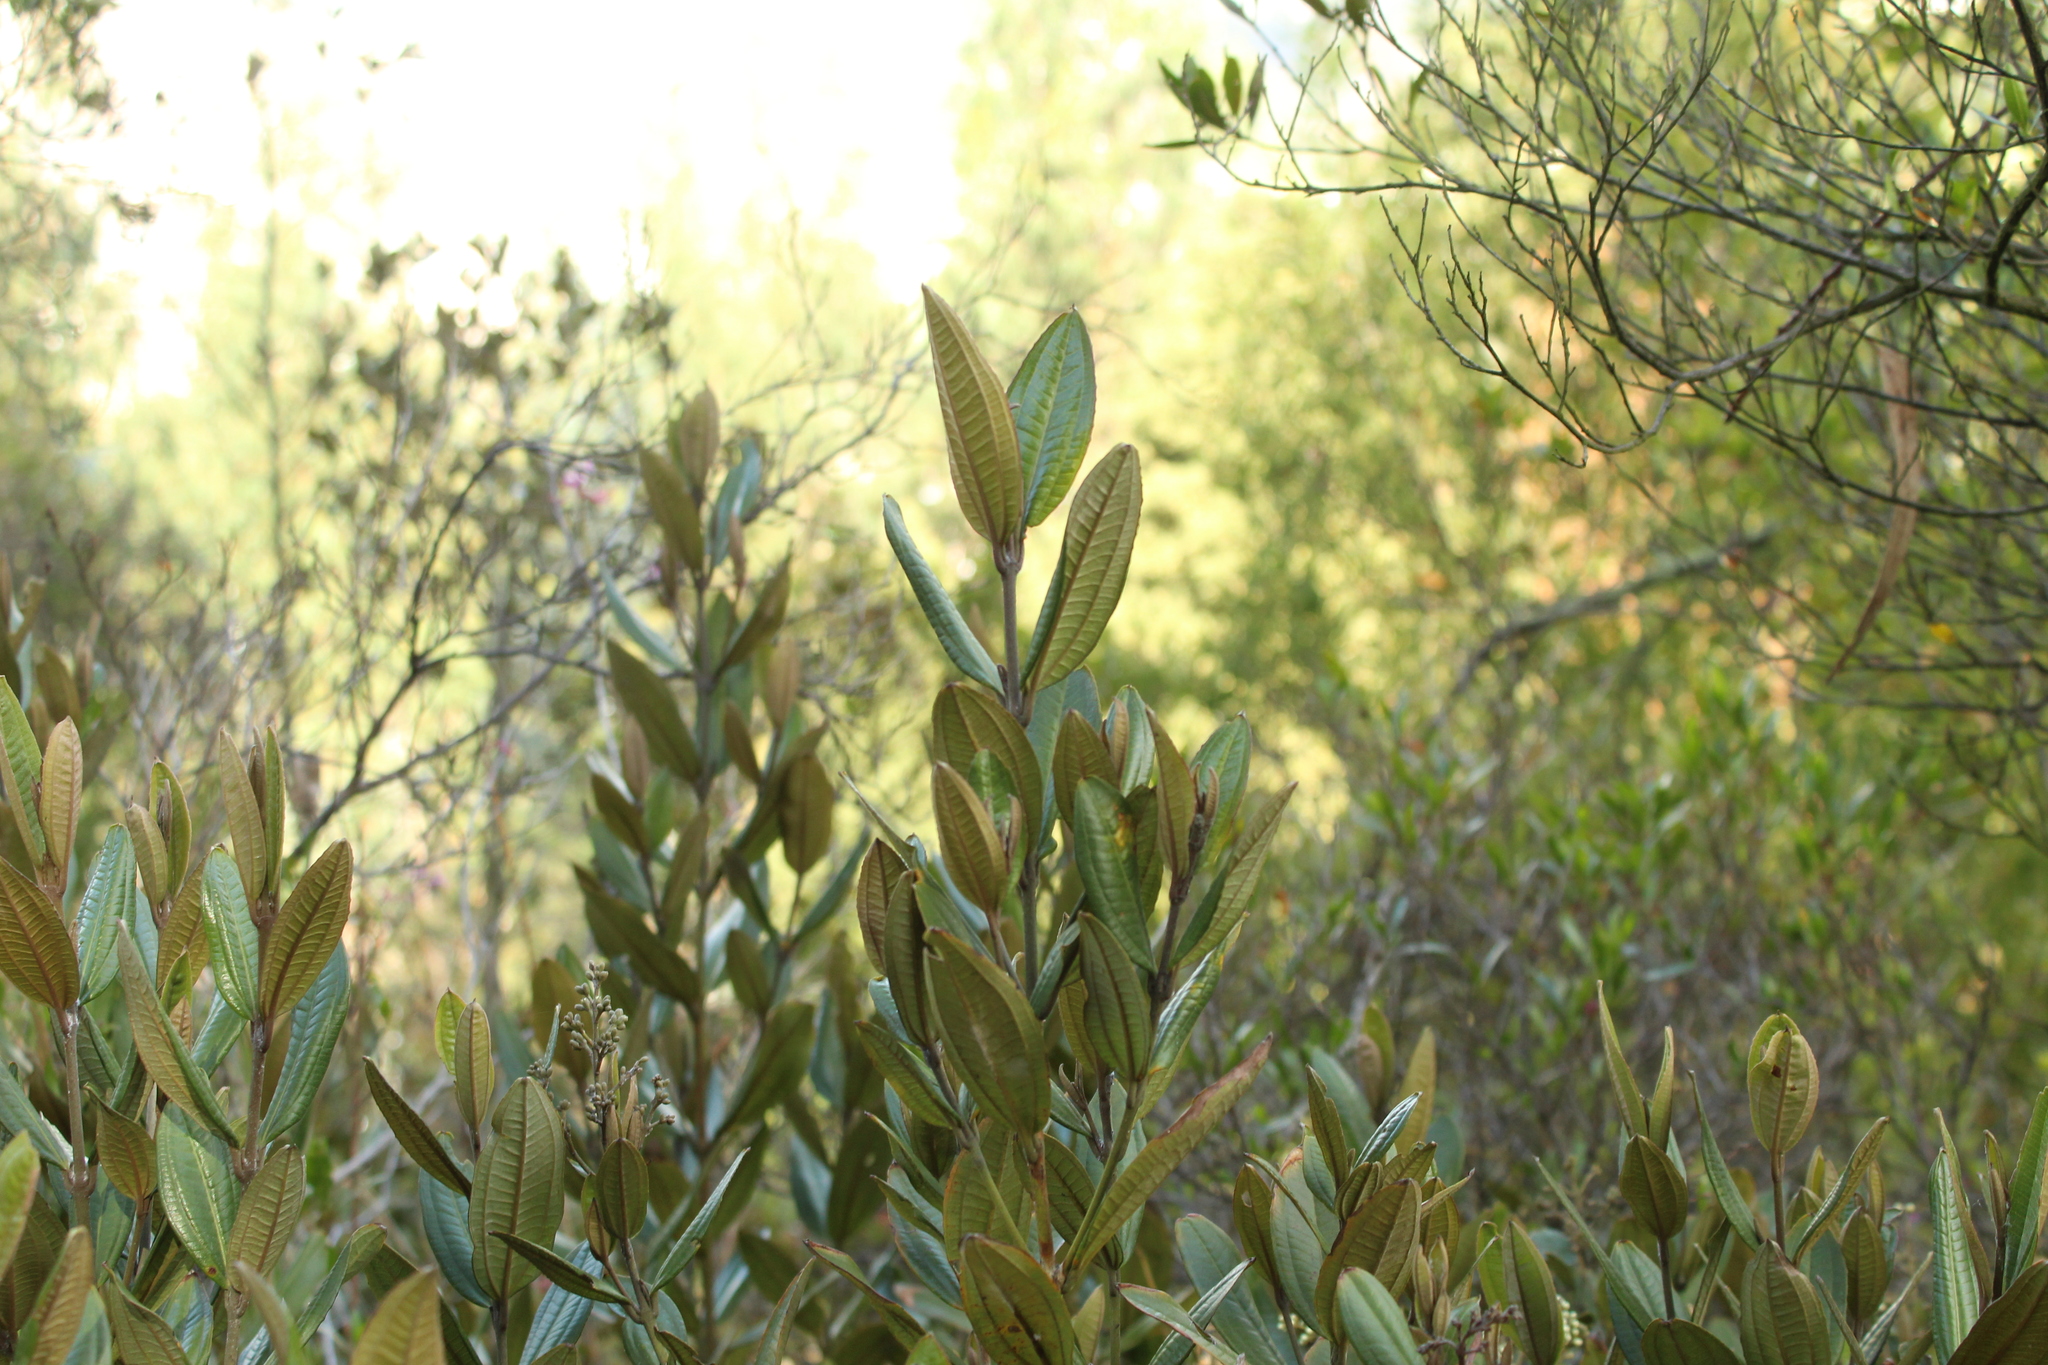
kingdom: Plantae
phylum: Tracheophyta
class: Magnoliopsida
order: Myrtales
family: Melastomataceae
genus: Miconia
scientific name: Miconia squamulosa
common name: Squamulose maya
